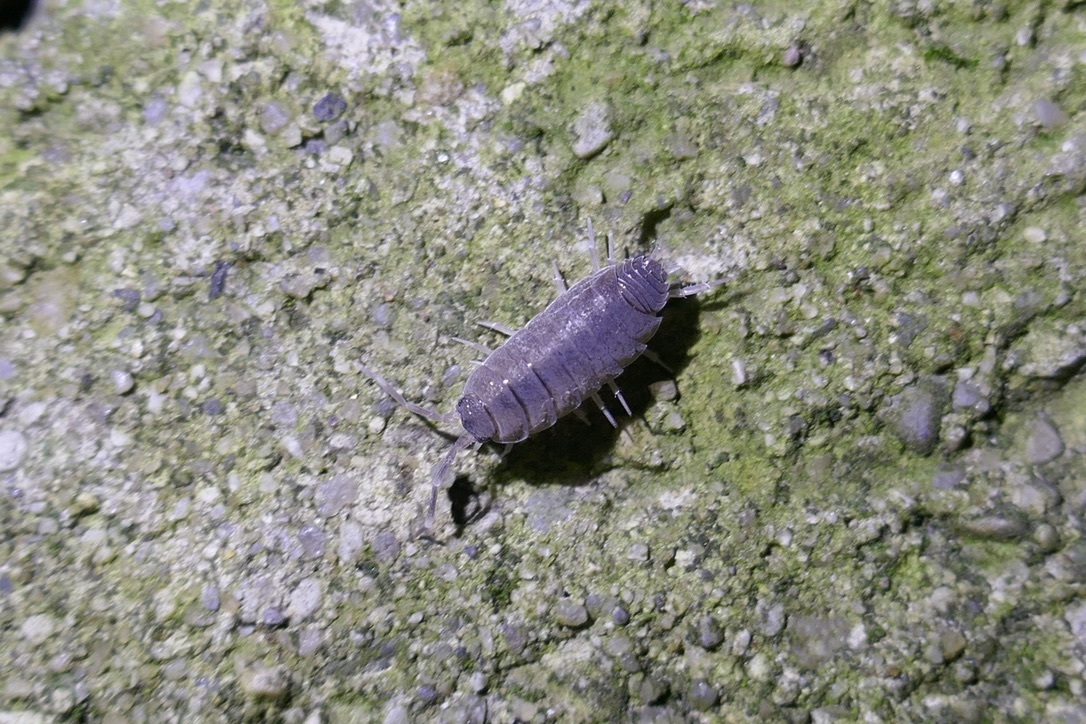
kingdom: Viruses
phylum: Nucleocytoviricota
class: Megaviricetes
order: Pimascovirales
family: Iridoviridae
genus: Iridovirus
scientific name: Iridovirus Invertebrate iridescent virus 31
